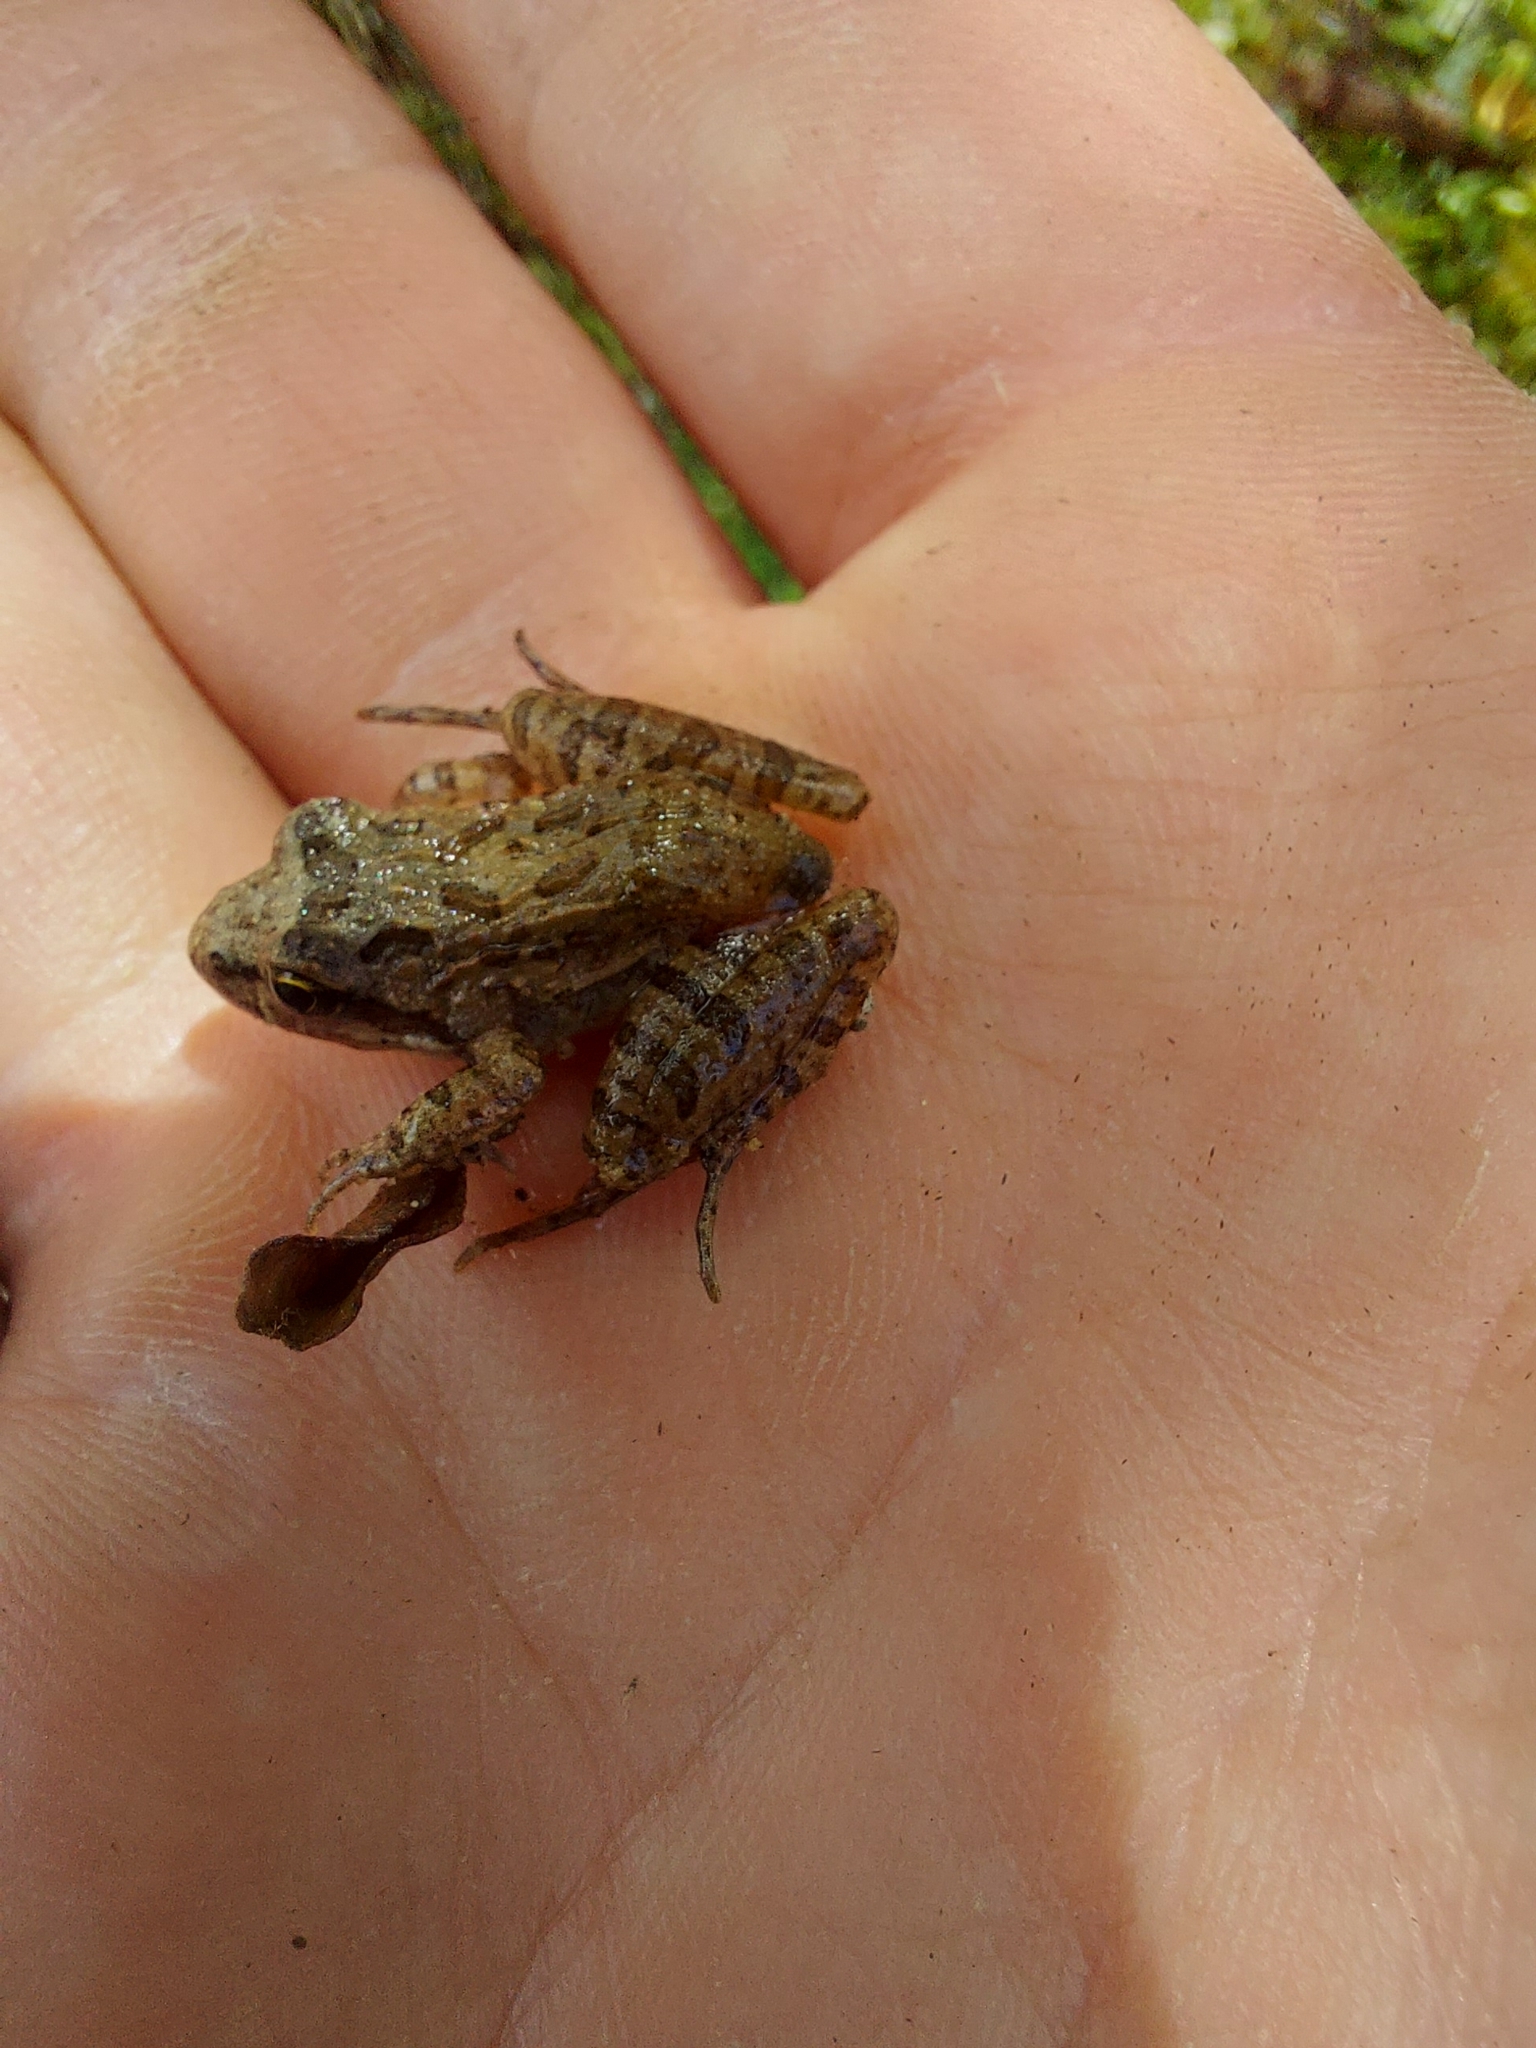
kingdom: Animalia
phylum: Chordata
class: Amphibia
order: Anura
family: Pyxicephalidae
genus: Strongylopus
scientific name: Strongylopus grayii
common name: Gray's stream frog
